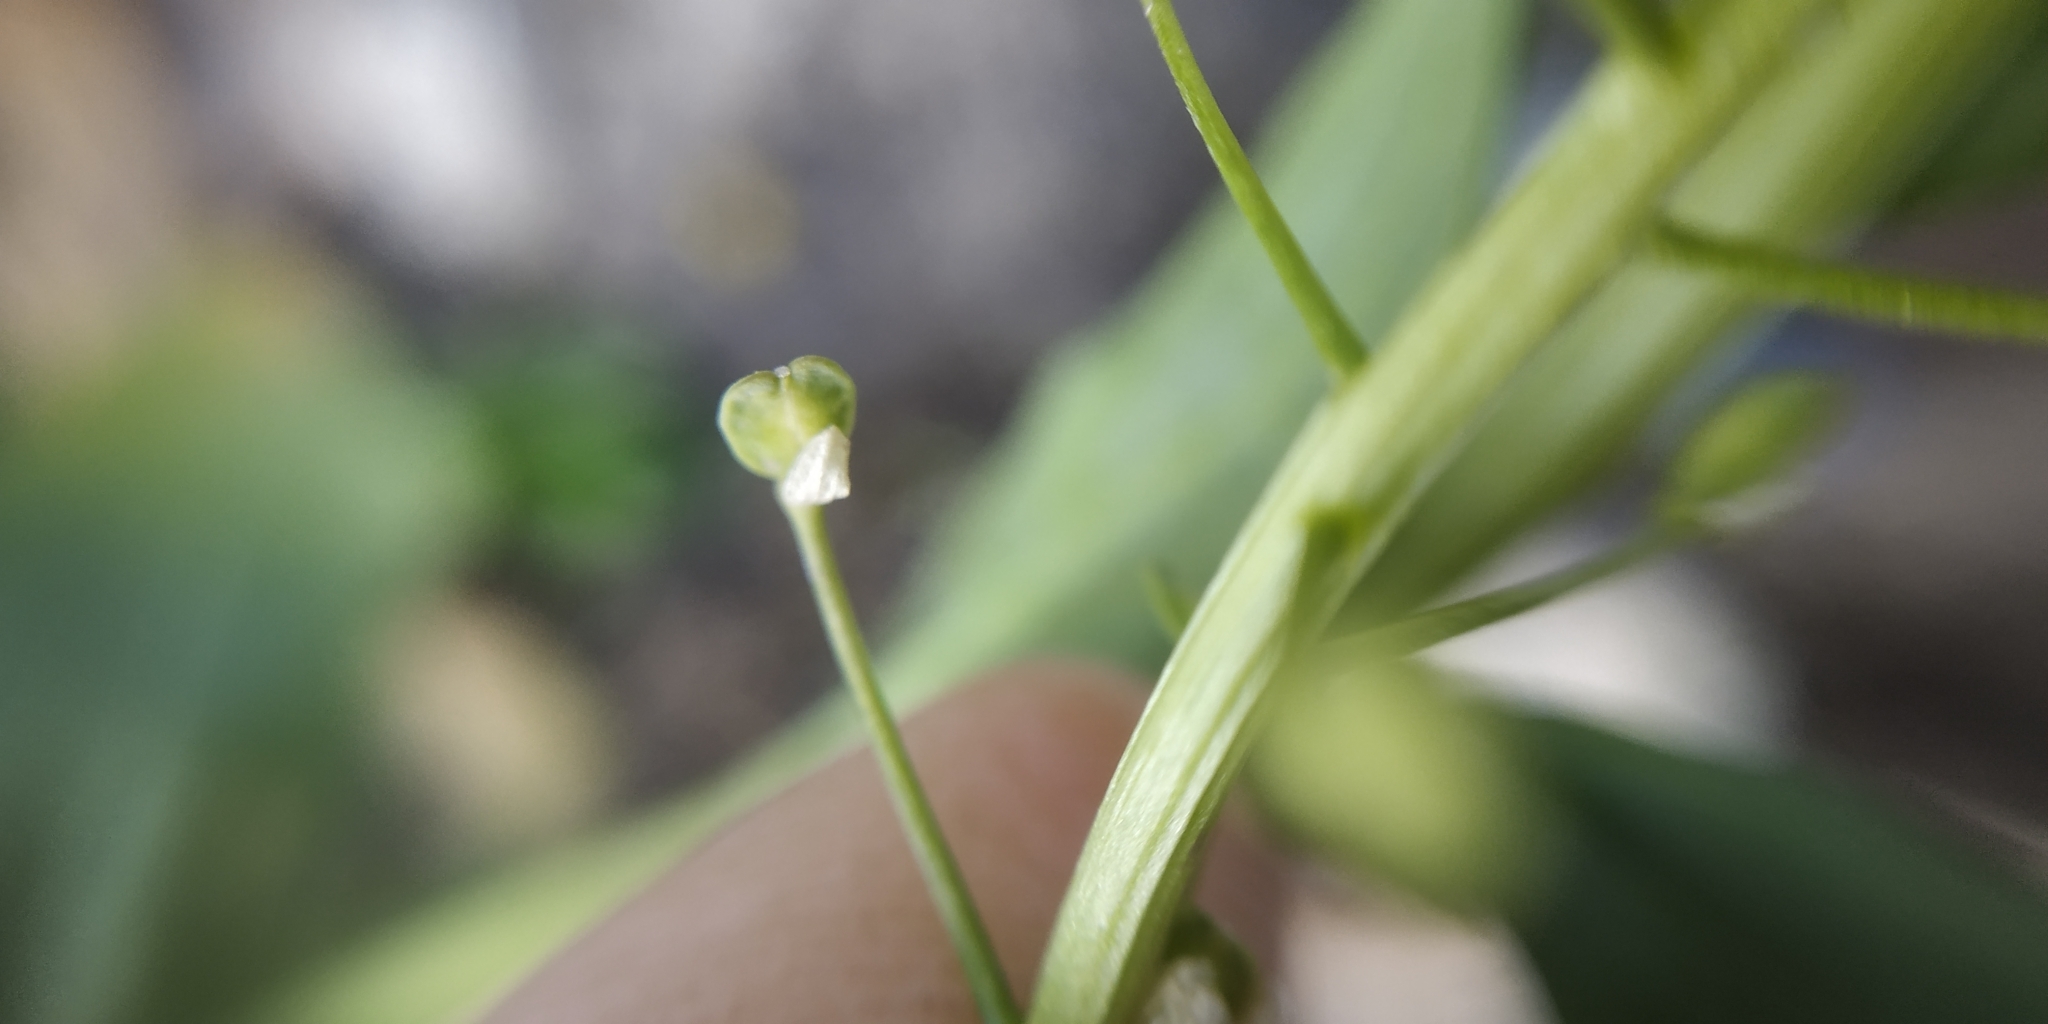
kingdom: Plantae
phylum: Tracheophyta
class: Magnoliopsida
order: Brassicales
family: Brassicaceae
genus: Thlaspi
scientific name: Thlaspi arvense
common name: Field pennycress
